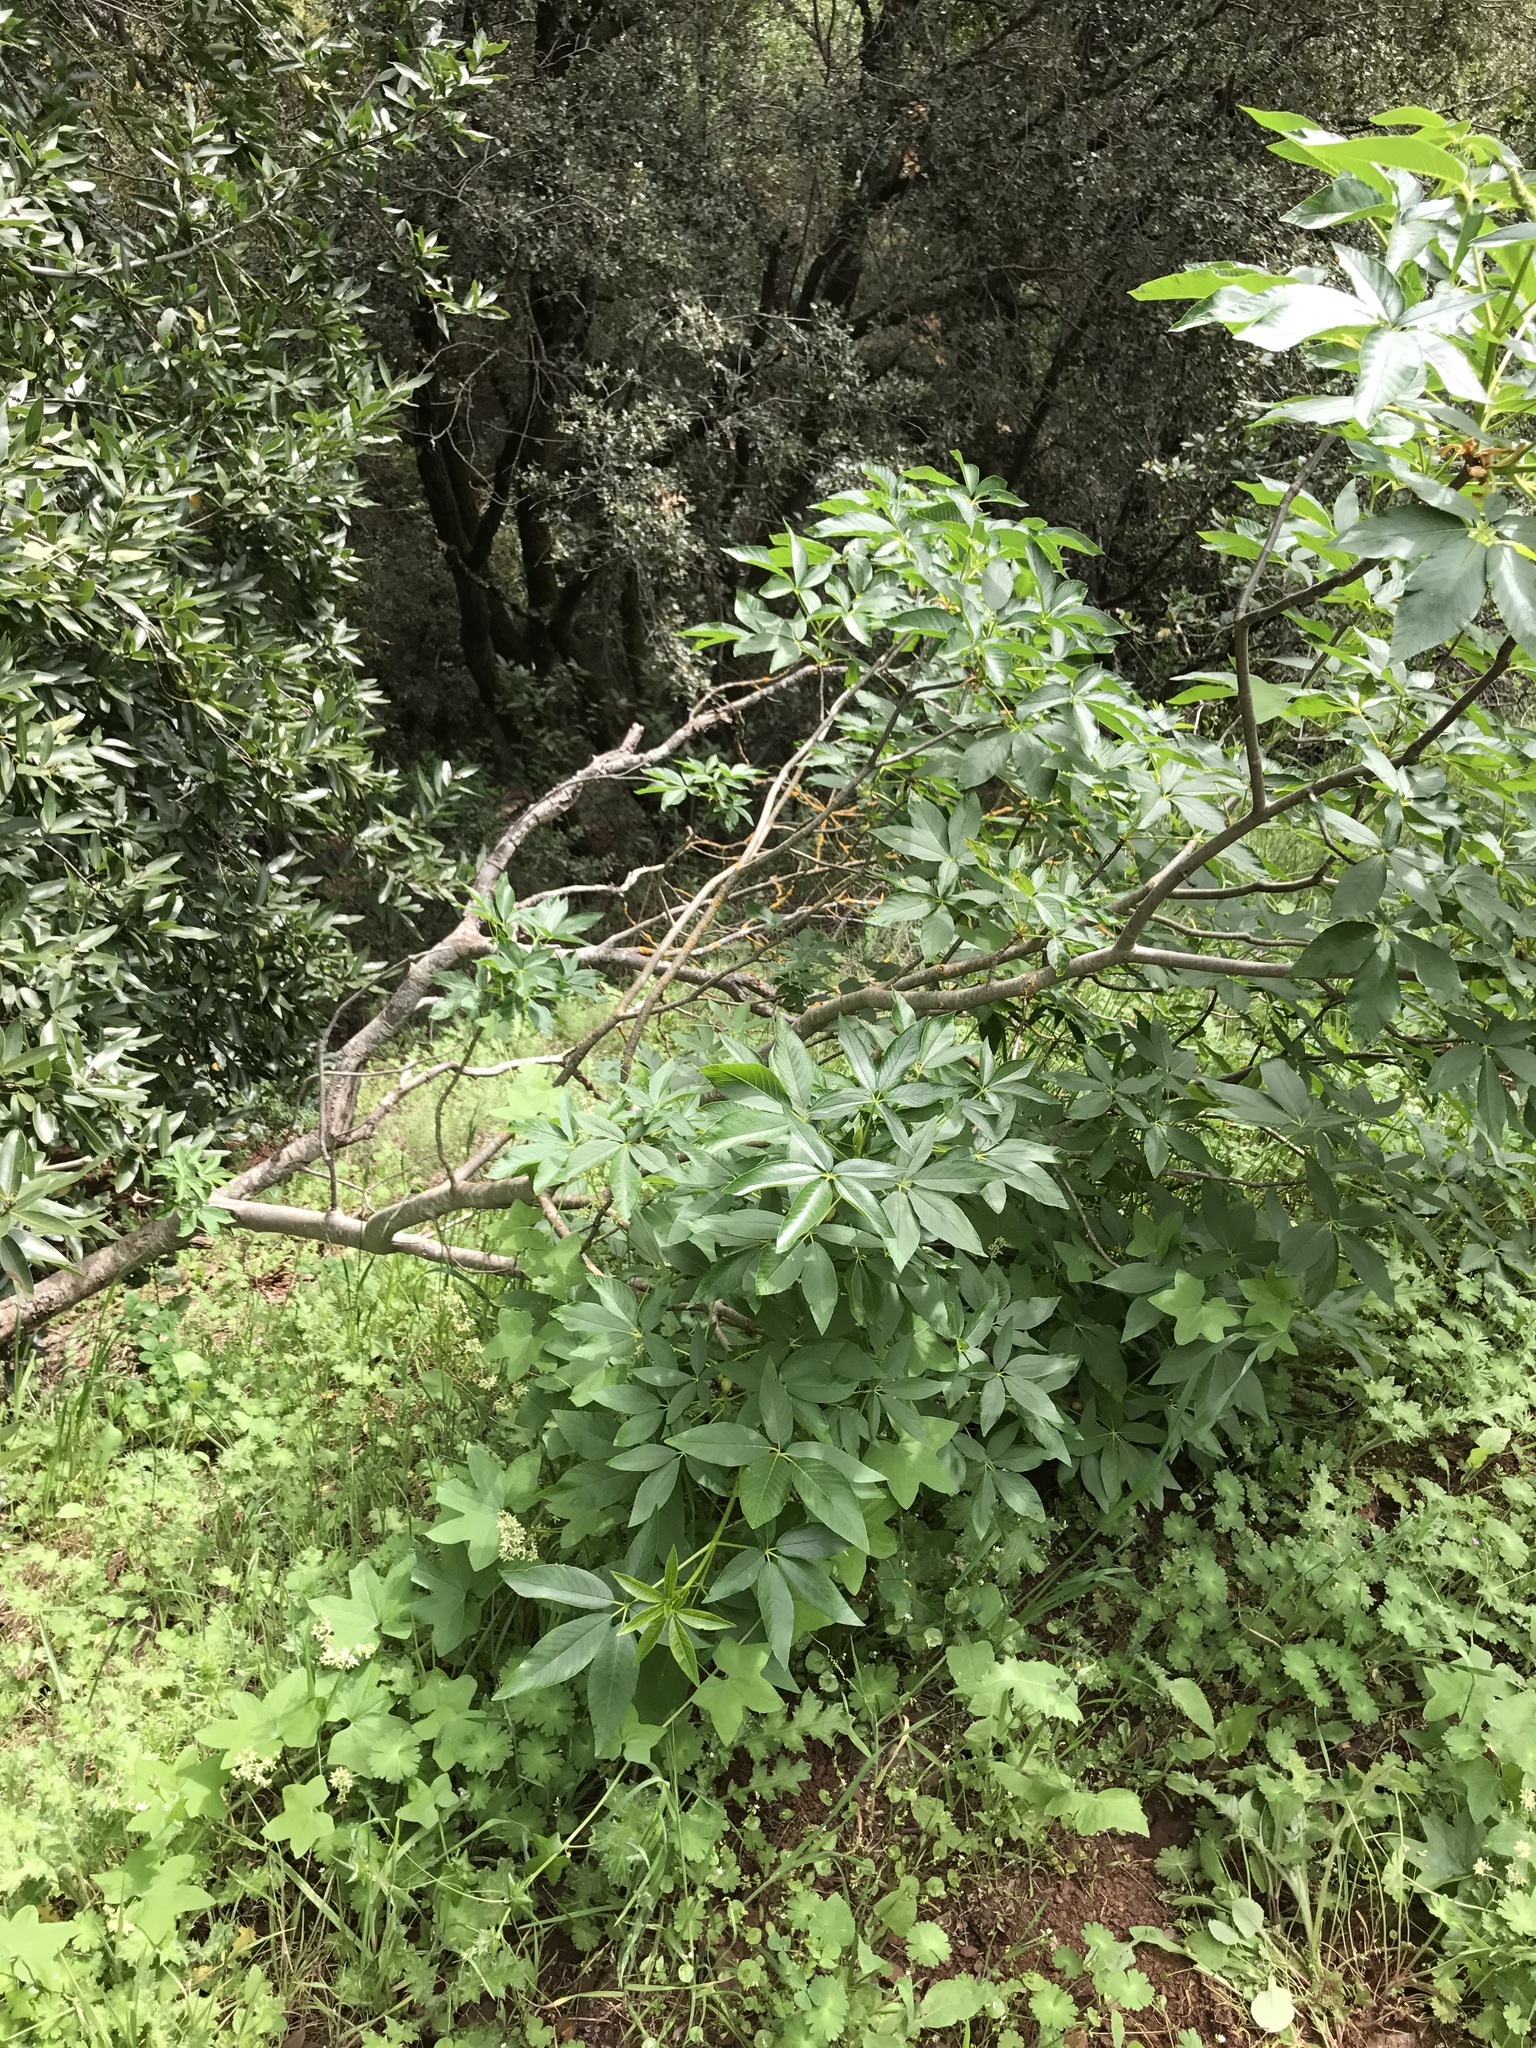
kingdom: Plantae
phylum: Tracheophyta
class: Magnoliopsida
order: Sapindales
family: Sapindaceae
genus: Aesculus
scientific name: Aesculus californica
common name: California buckeye
